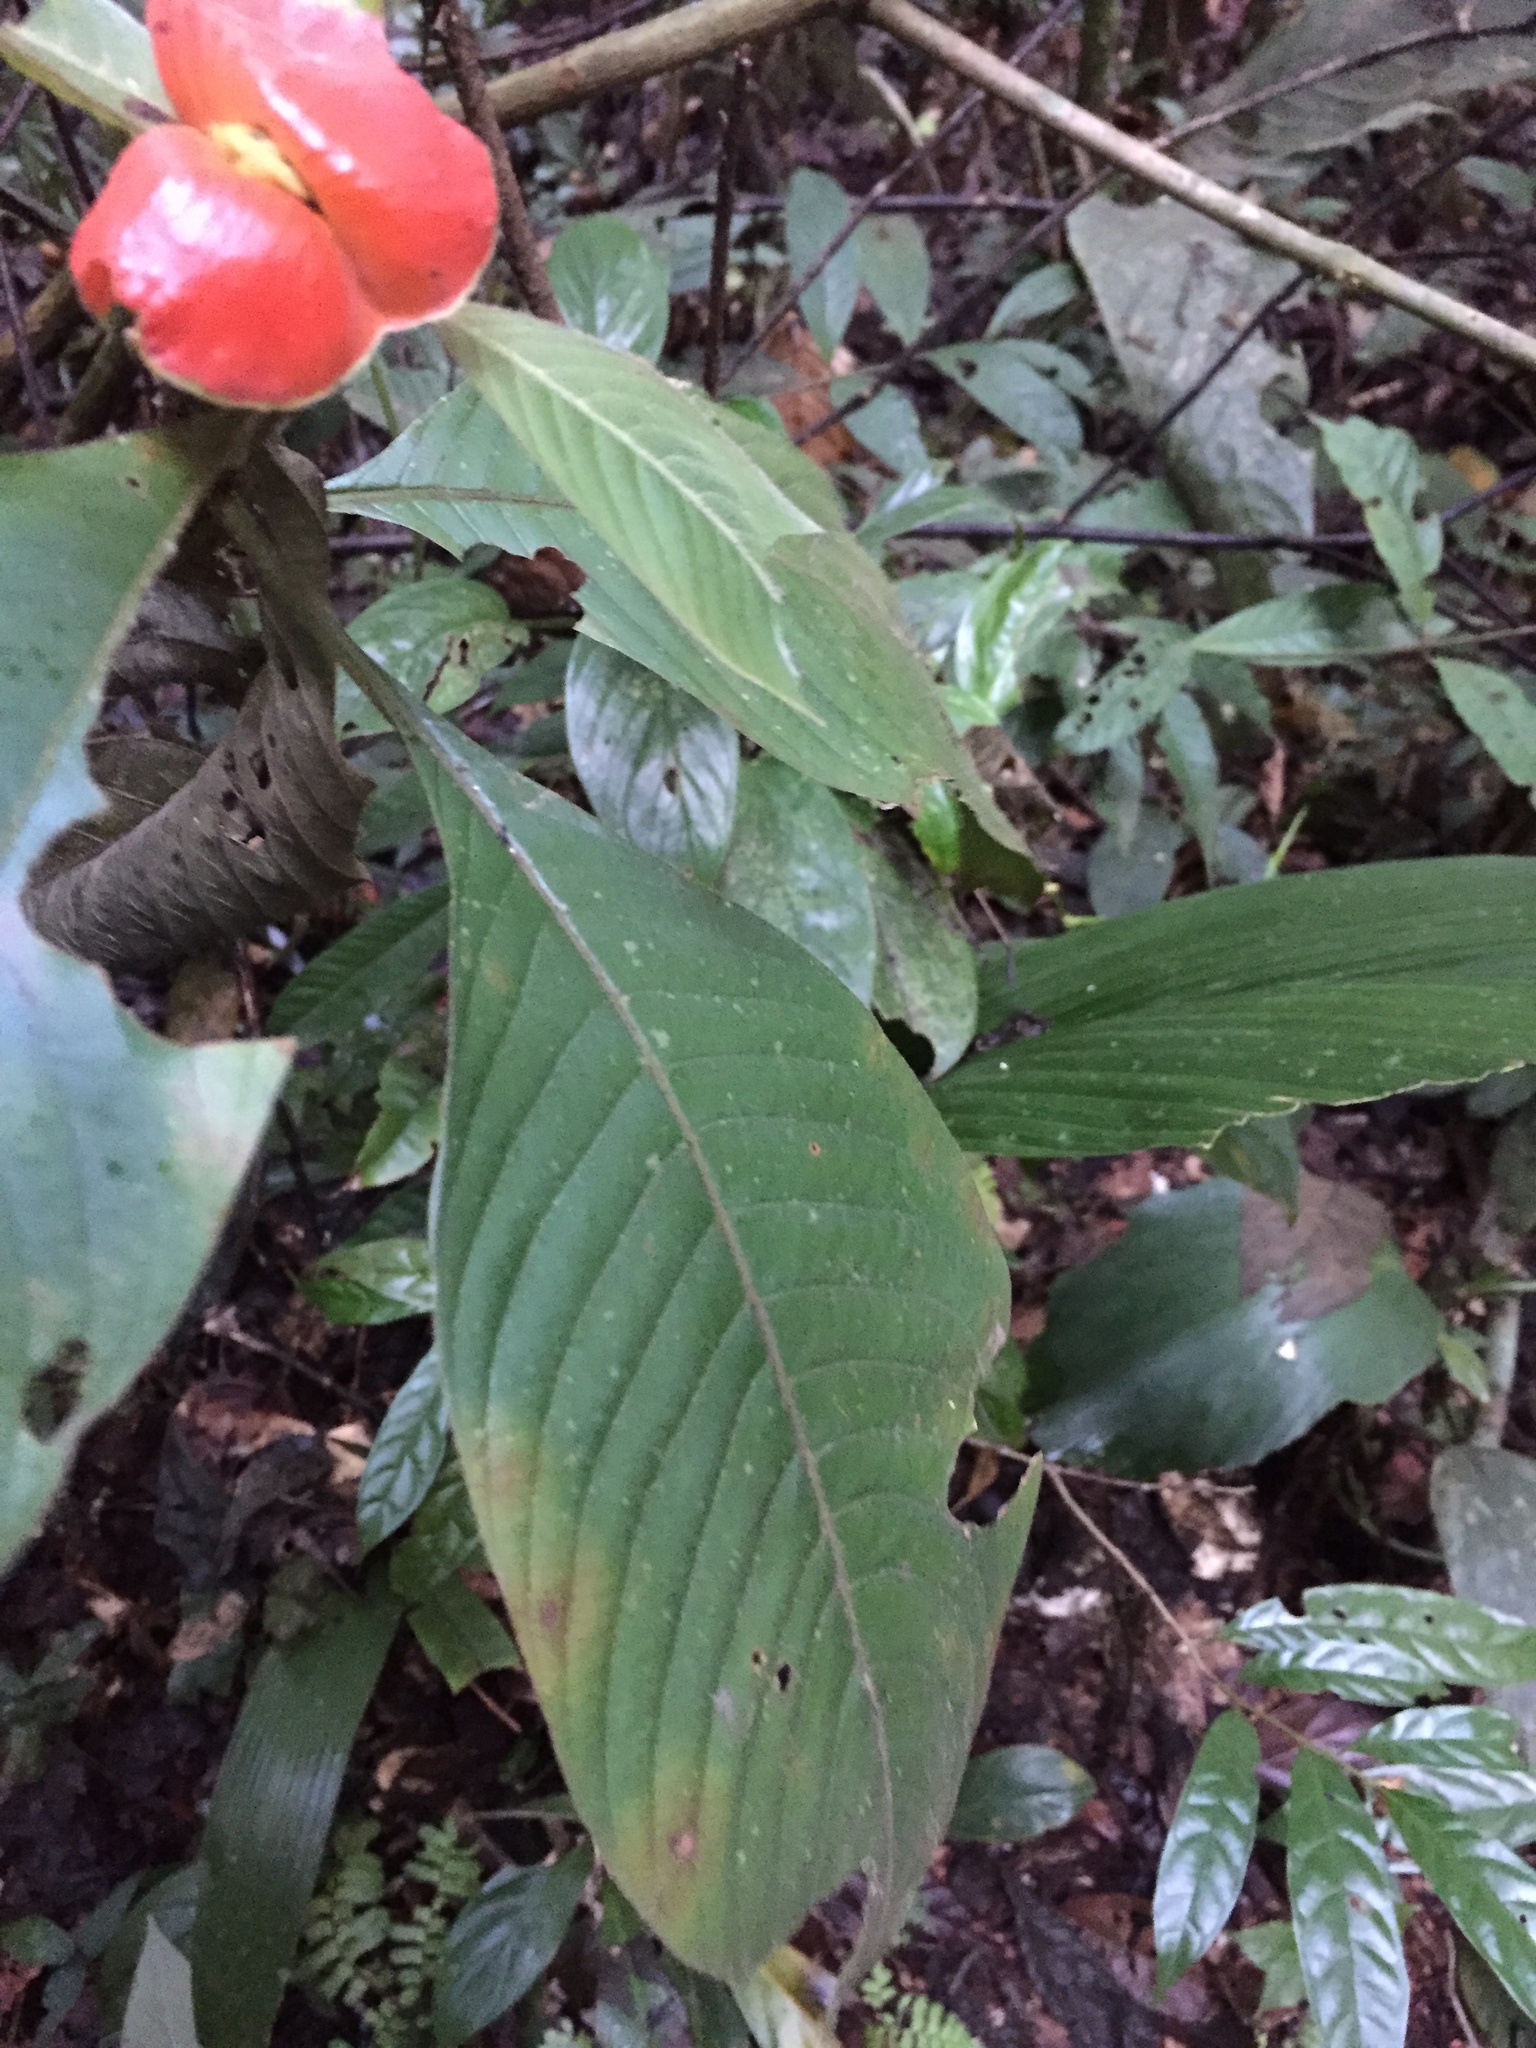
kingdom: Plantae
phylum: Tracheophyta
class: Magnoliopsida
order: Gentianales
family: Rubiaceae
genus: Palicourea
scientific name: Palicourea tomentosa
